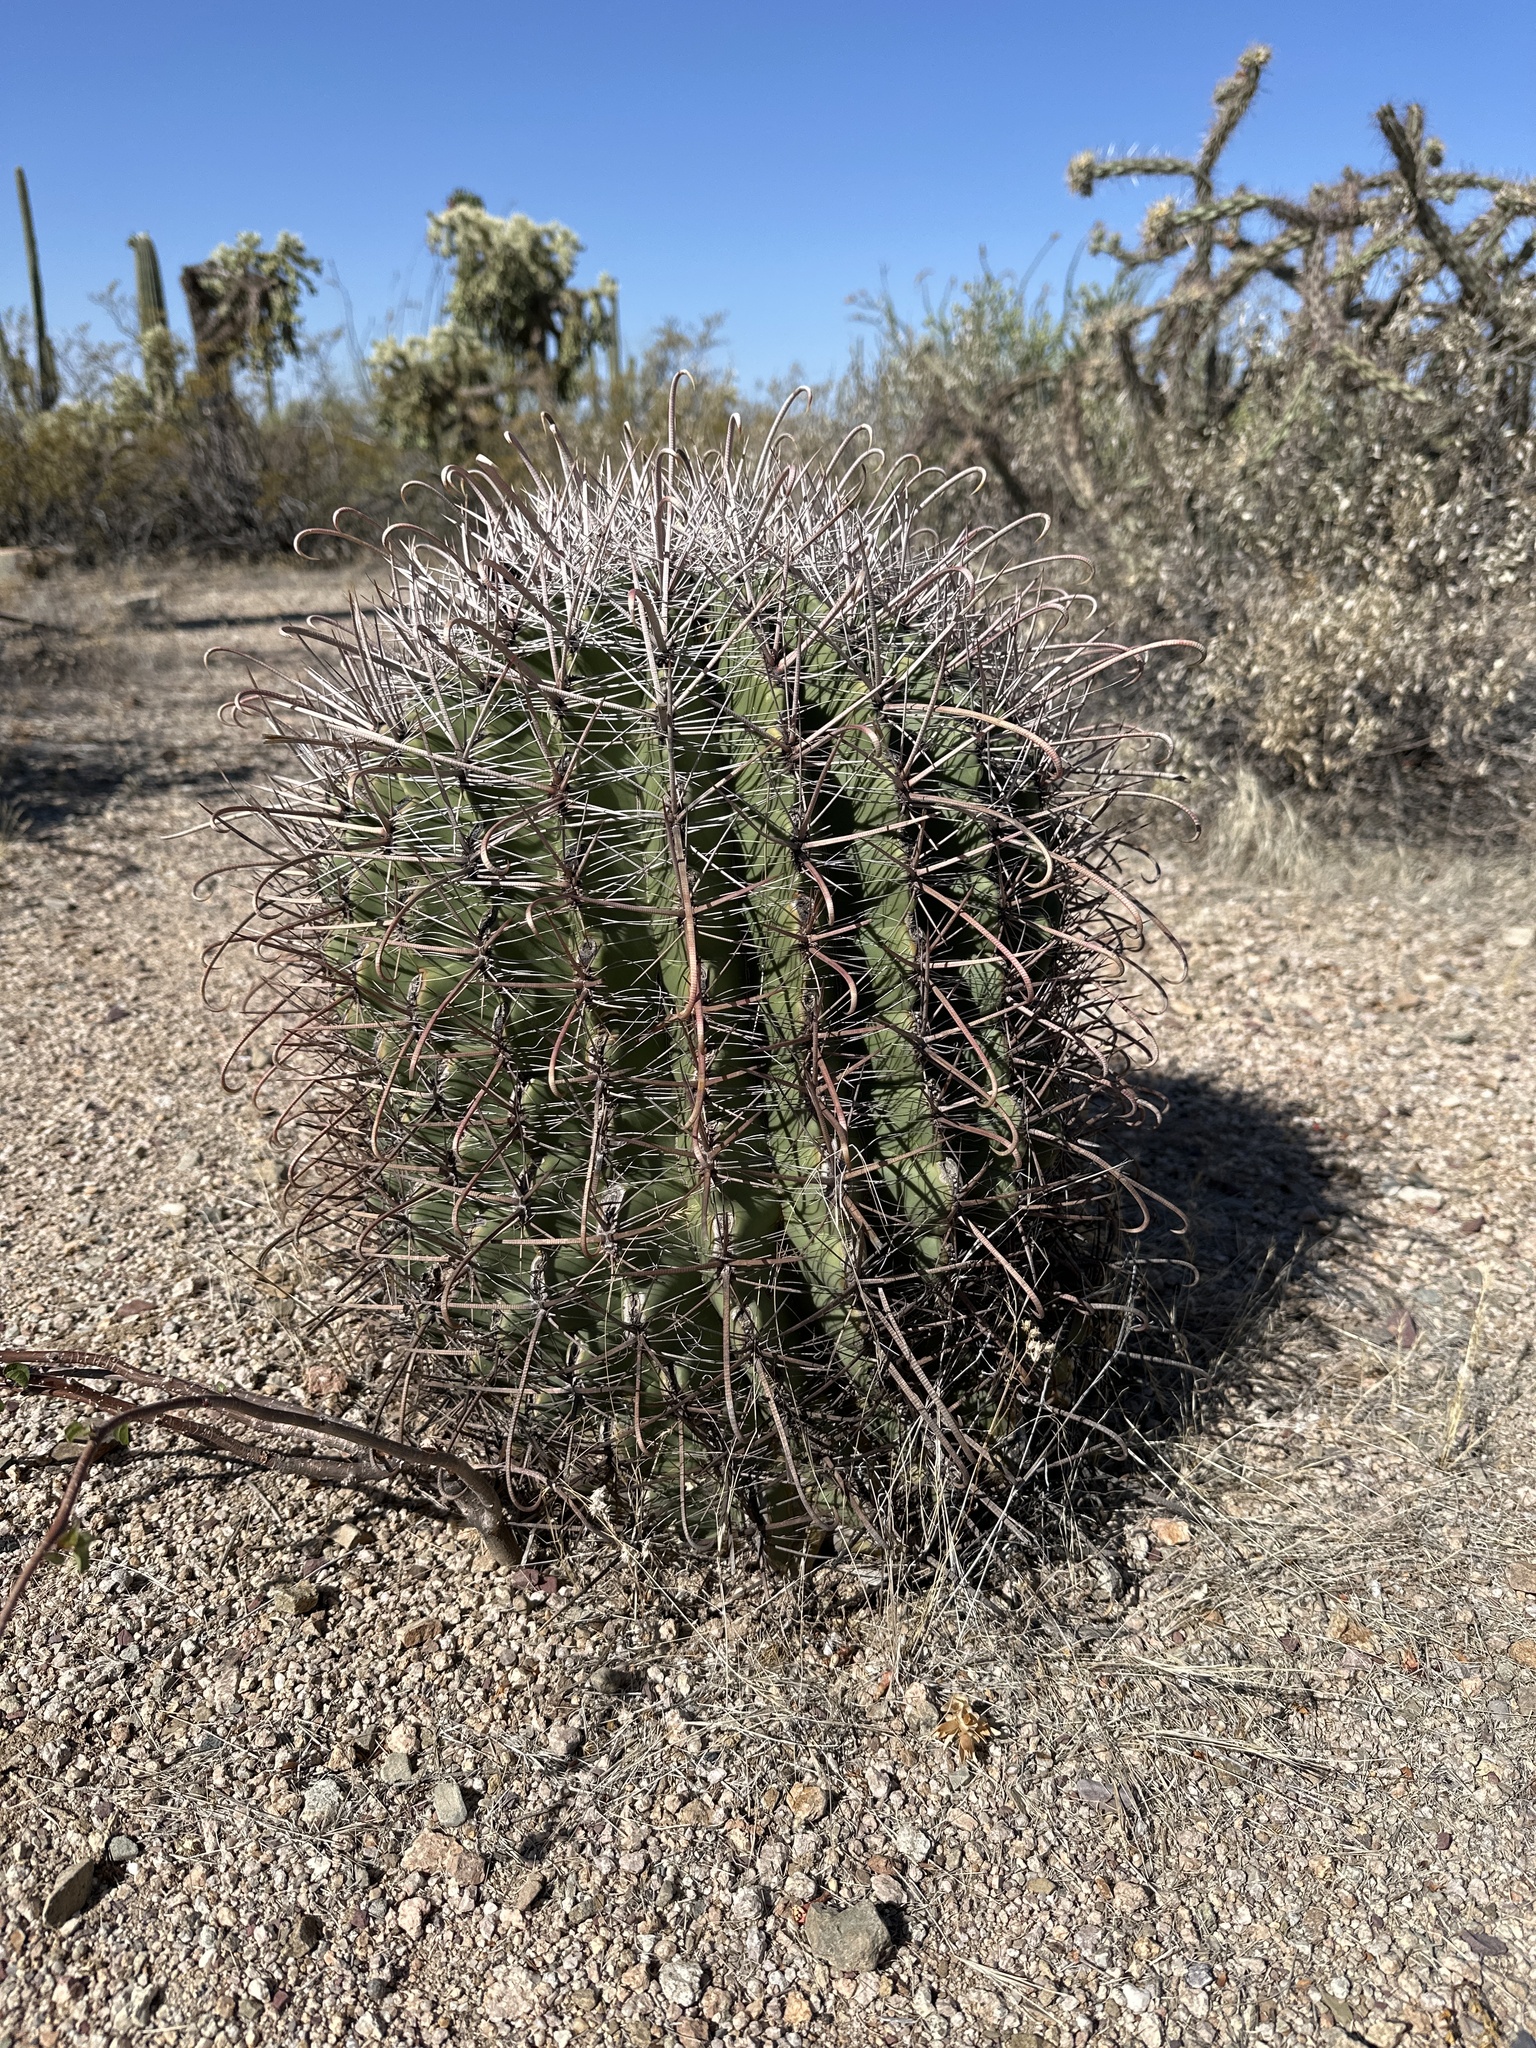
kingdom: Plantae
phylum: Tracheophyta
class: Magnoliopsida
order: Caryophyllales
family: Cactaceae
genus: Ferocactus
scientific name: Ferocactus wislizeni
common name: Candy barrel cactus
